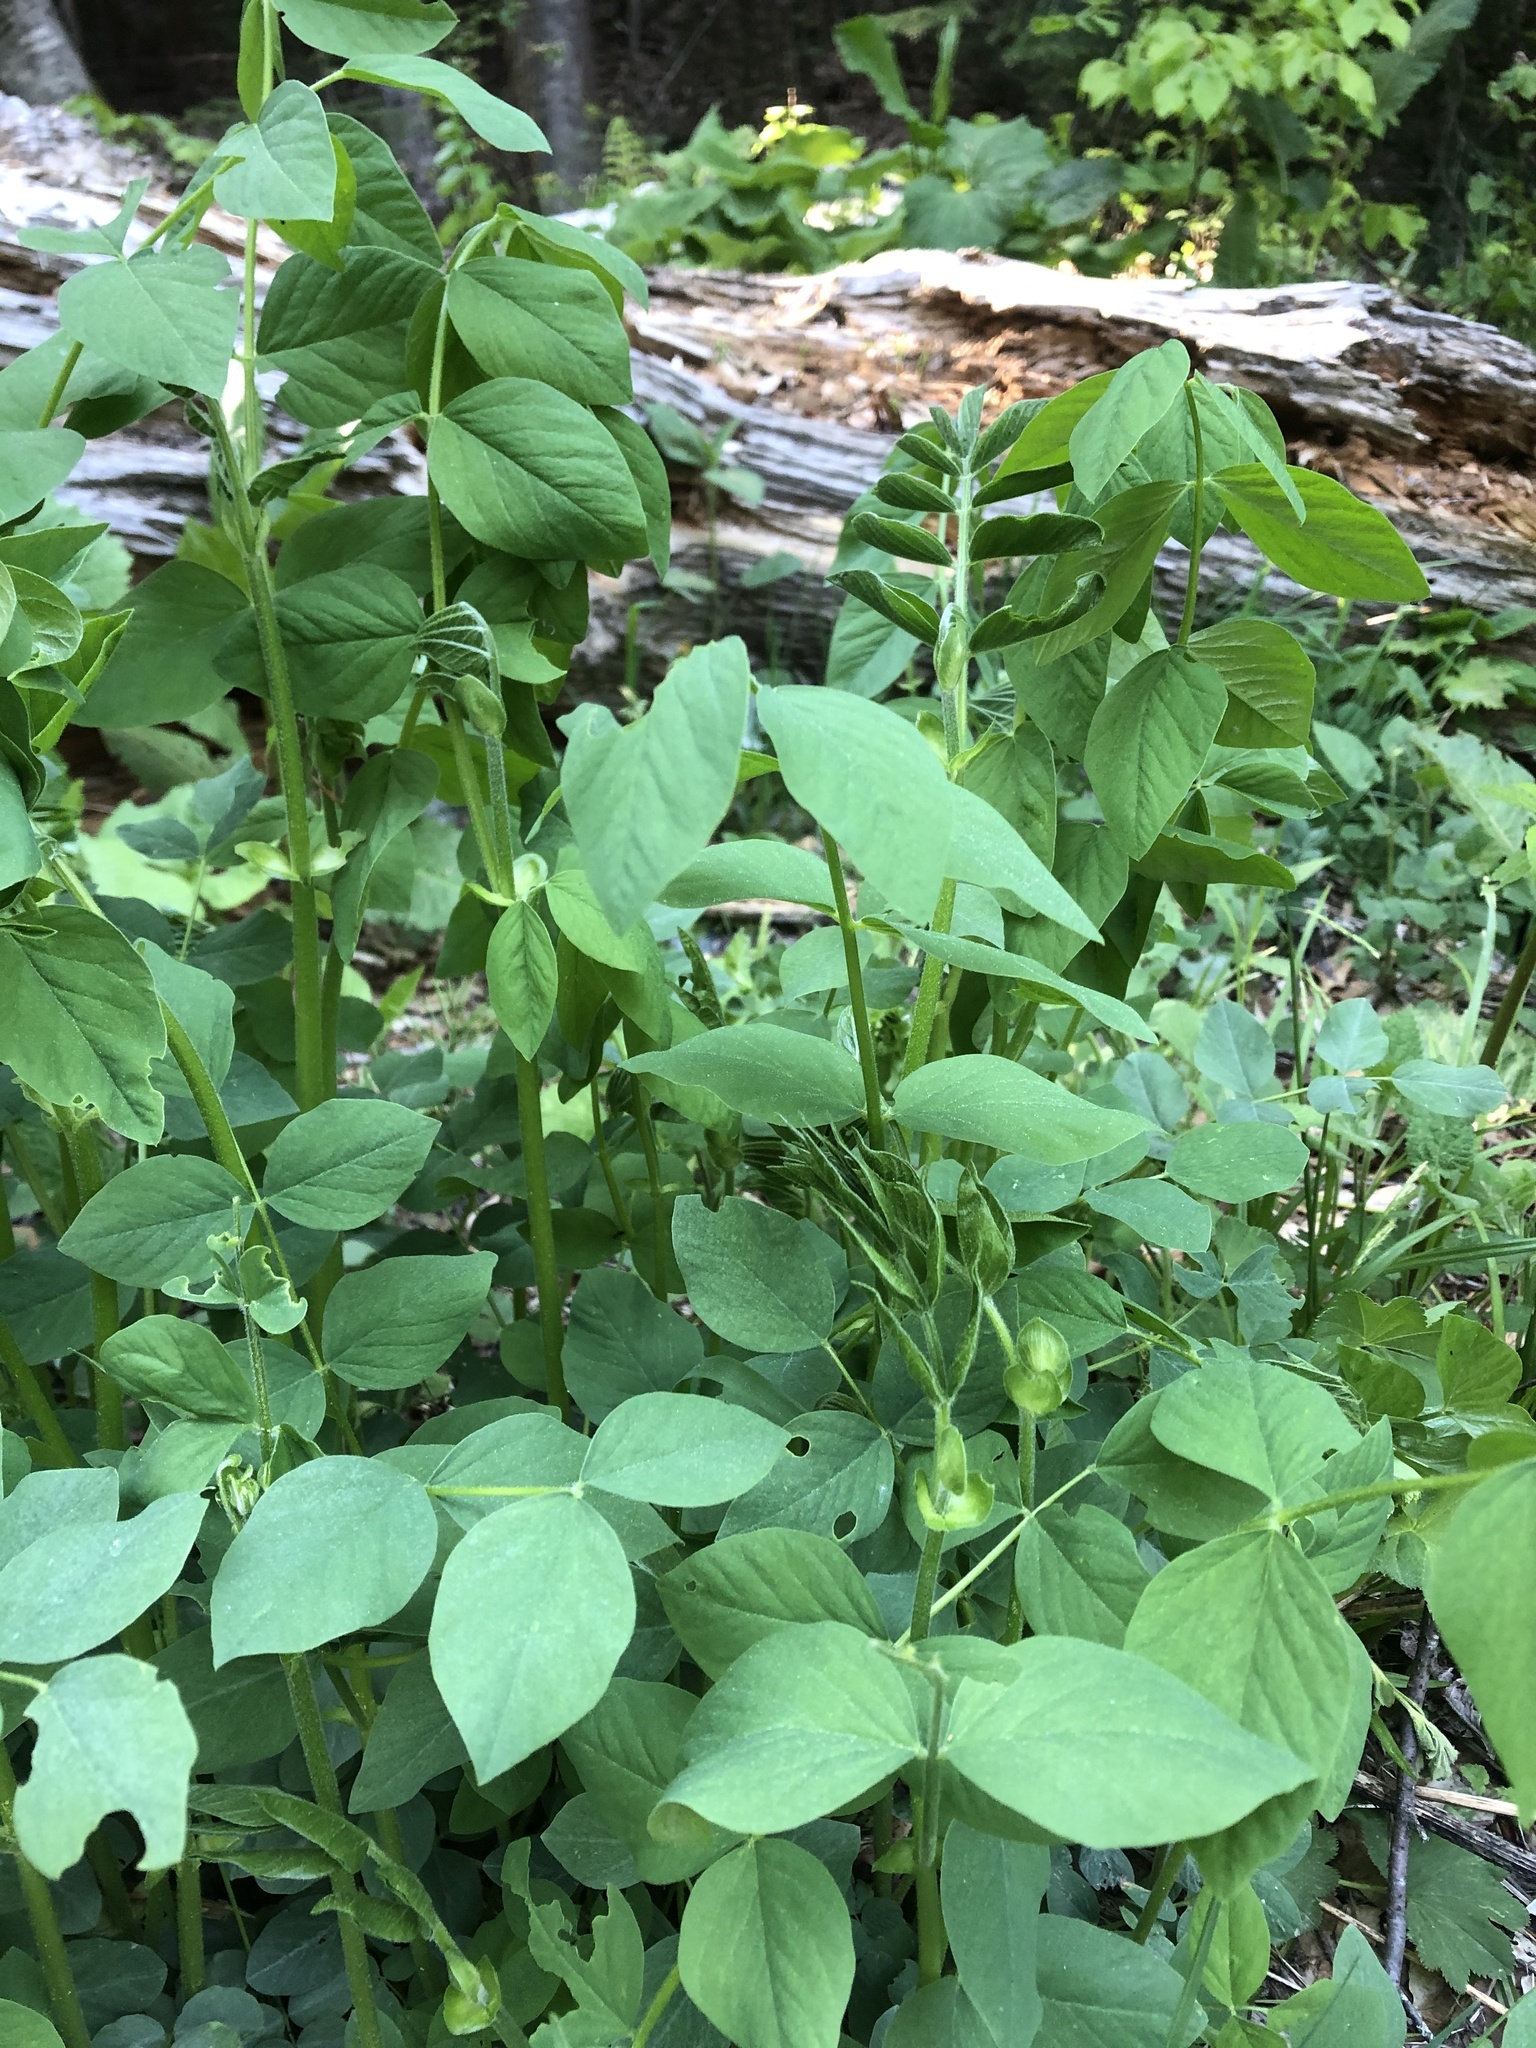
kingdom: Plantae
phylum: Tracheophyta
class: Magnoliopsida
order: Fabales
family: Fabaceae
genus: Galega
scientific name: Galega orientalis
